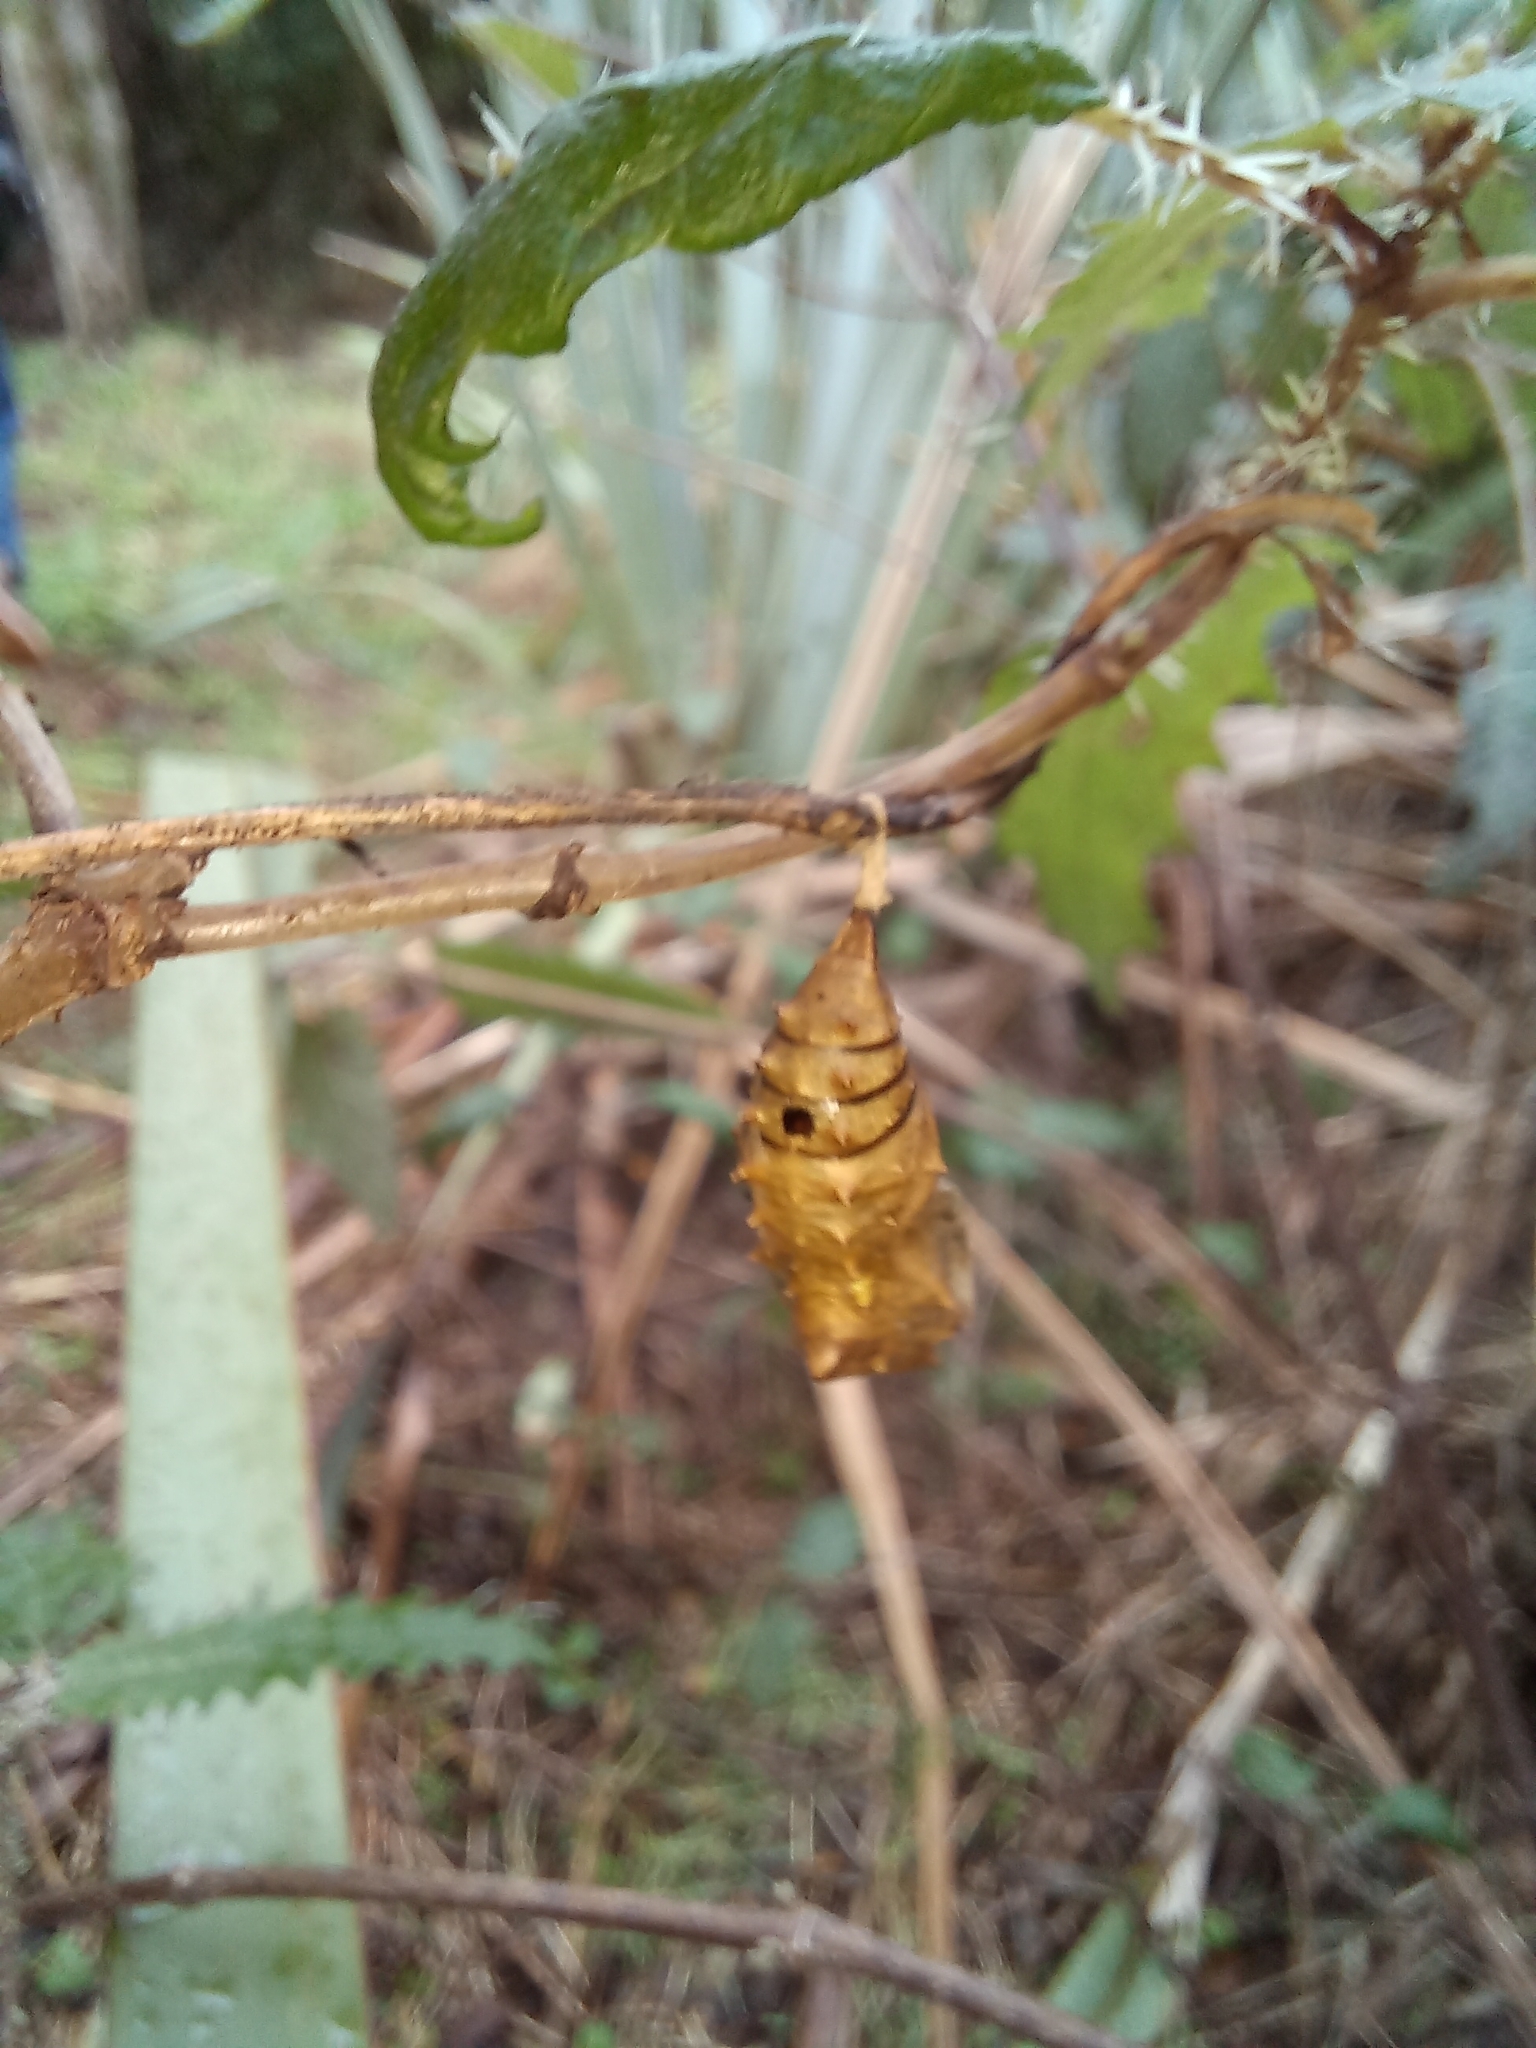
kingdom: Animalia
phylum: Arthropoda
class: Insecta
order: Hymenoptera
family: Pteromalidae
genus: Pteromalus
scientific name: Pteromalus puparum
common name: Parasitoid wasp
